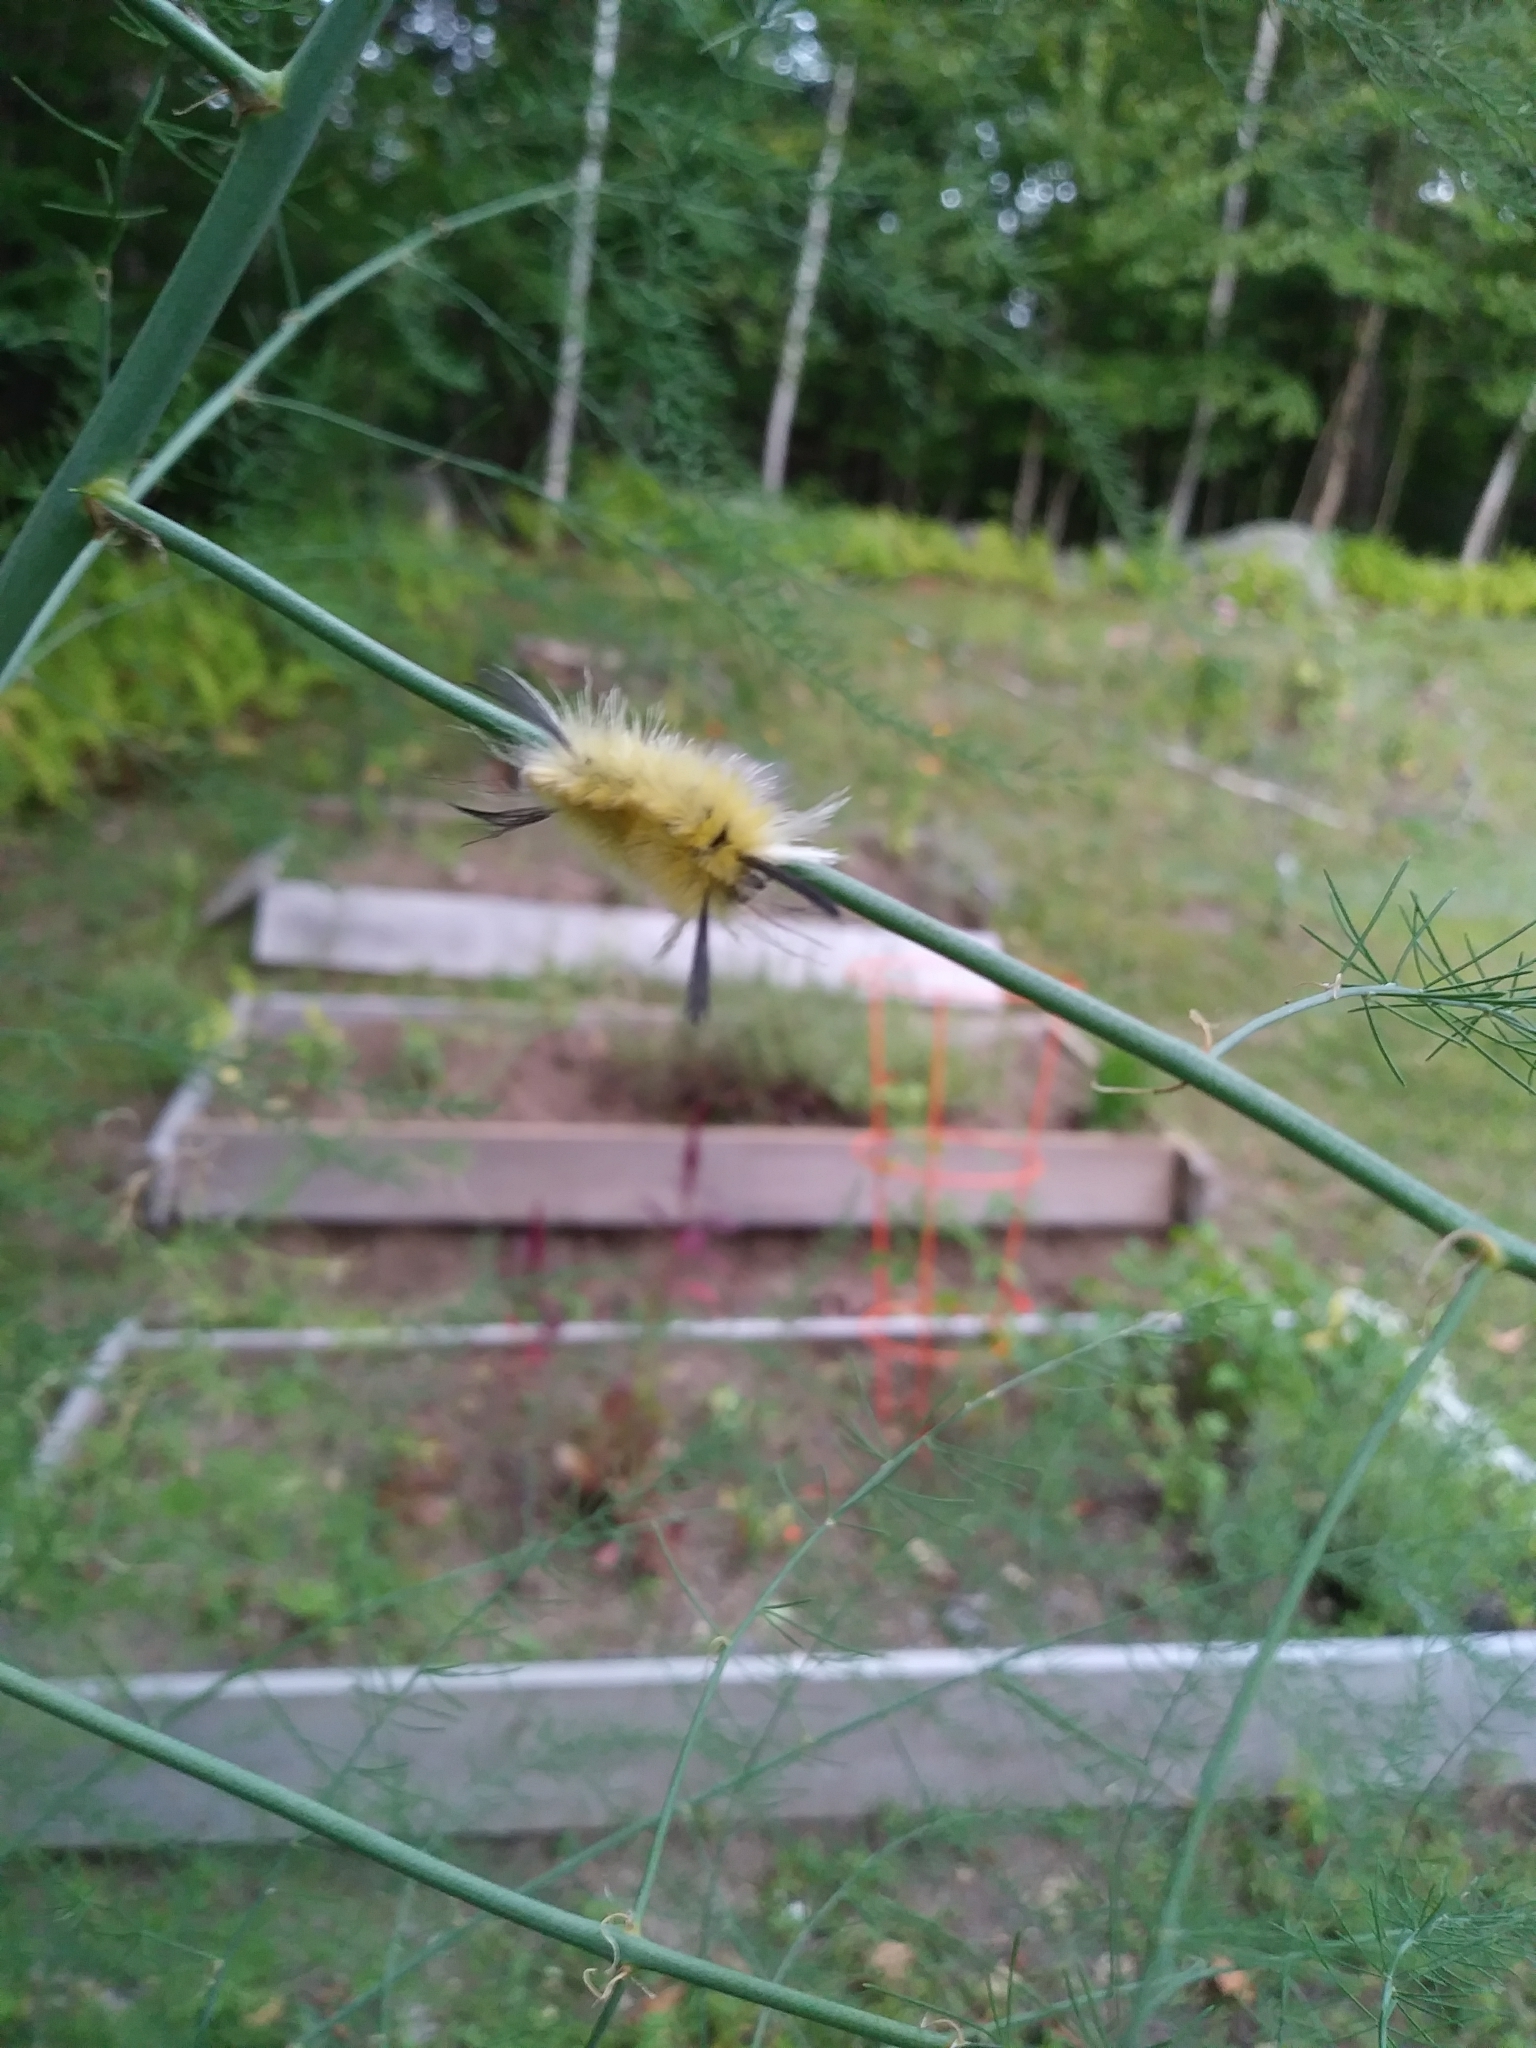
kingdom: Animalia
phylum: Arthropoda
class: Insecta
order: Lepidoptera
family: Erebidae
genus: Halysidota
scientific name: Halysidota tessellaris
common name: Banded tussock moth
